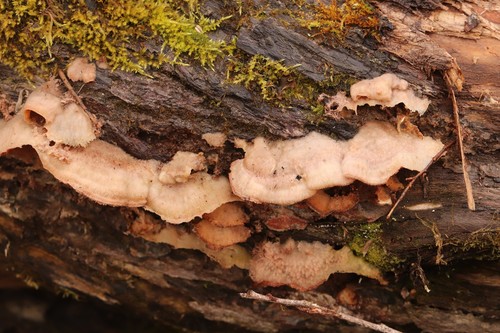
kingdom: Fungi
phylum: Basidiomycota
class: Agaricomycetes
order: Polyporales
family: Meruliaceae
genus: Phlebia
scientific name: Phlebia tremellosa
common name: Jelly rot
